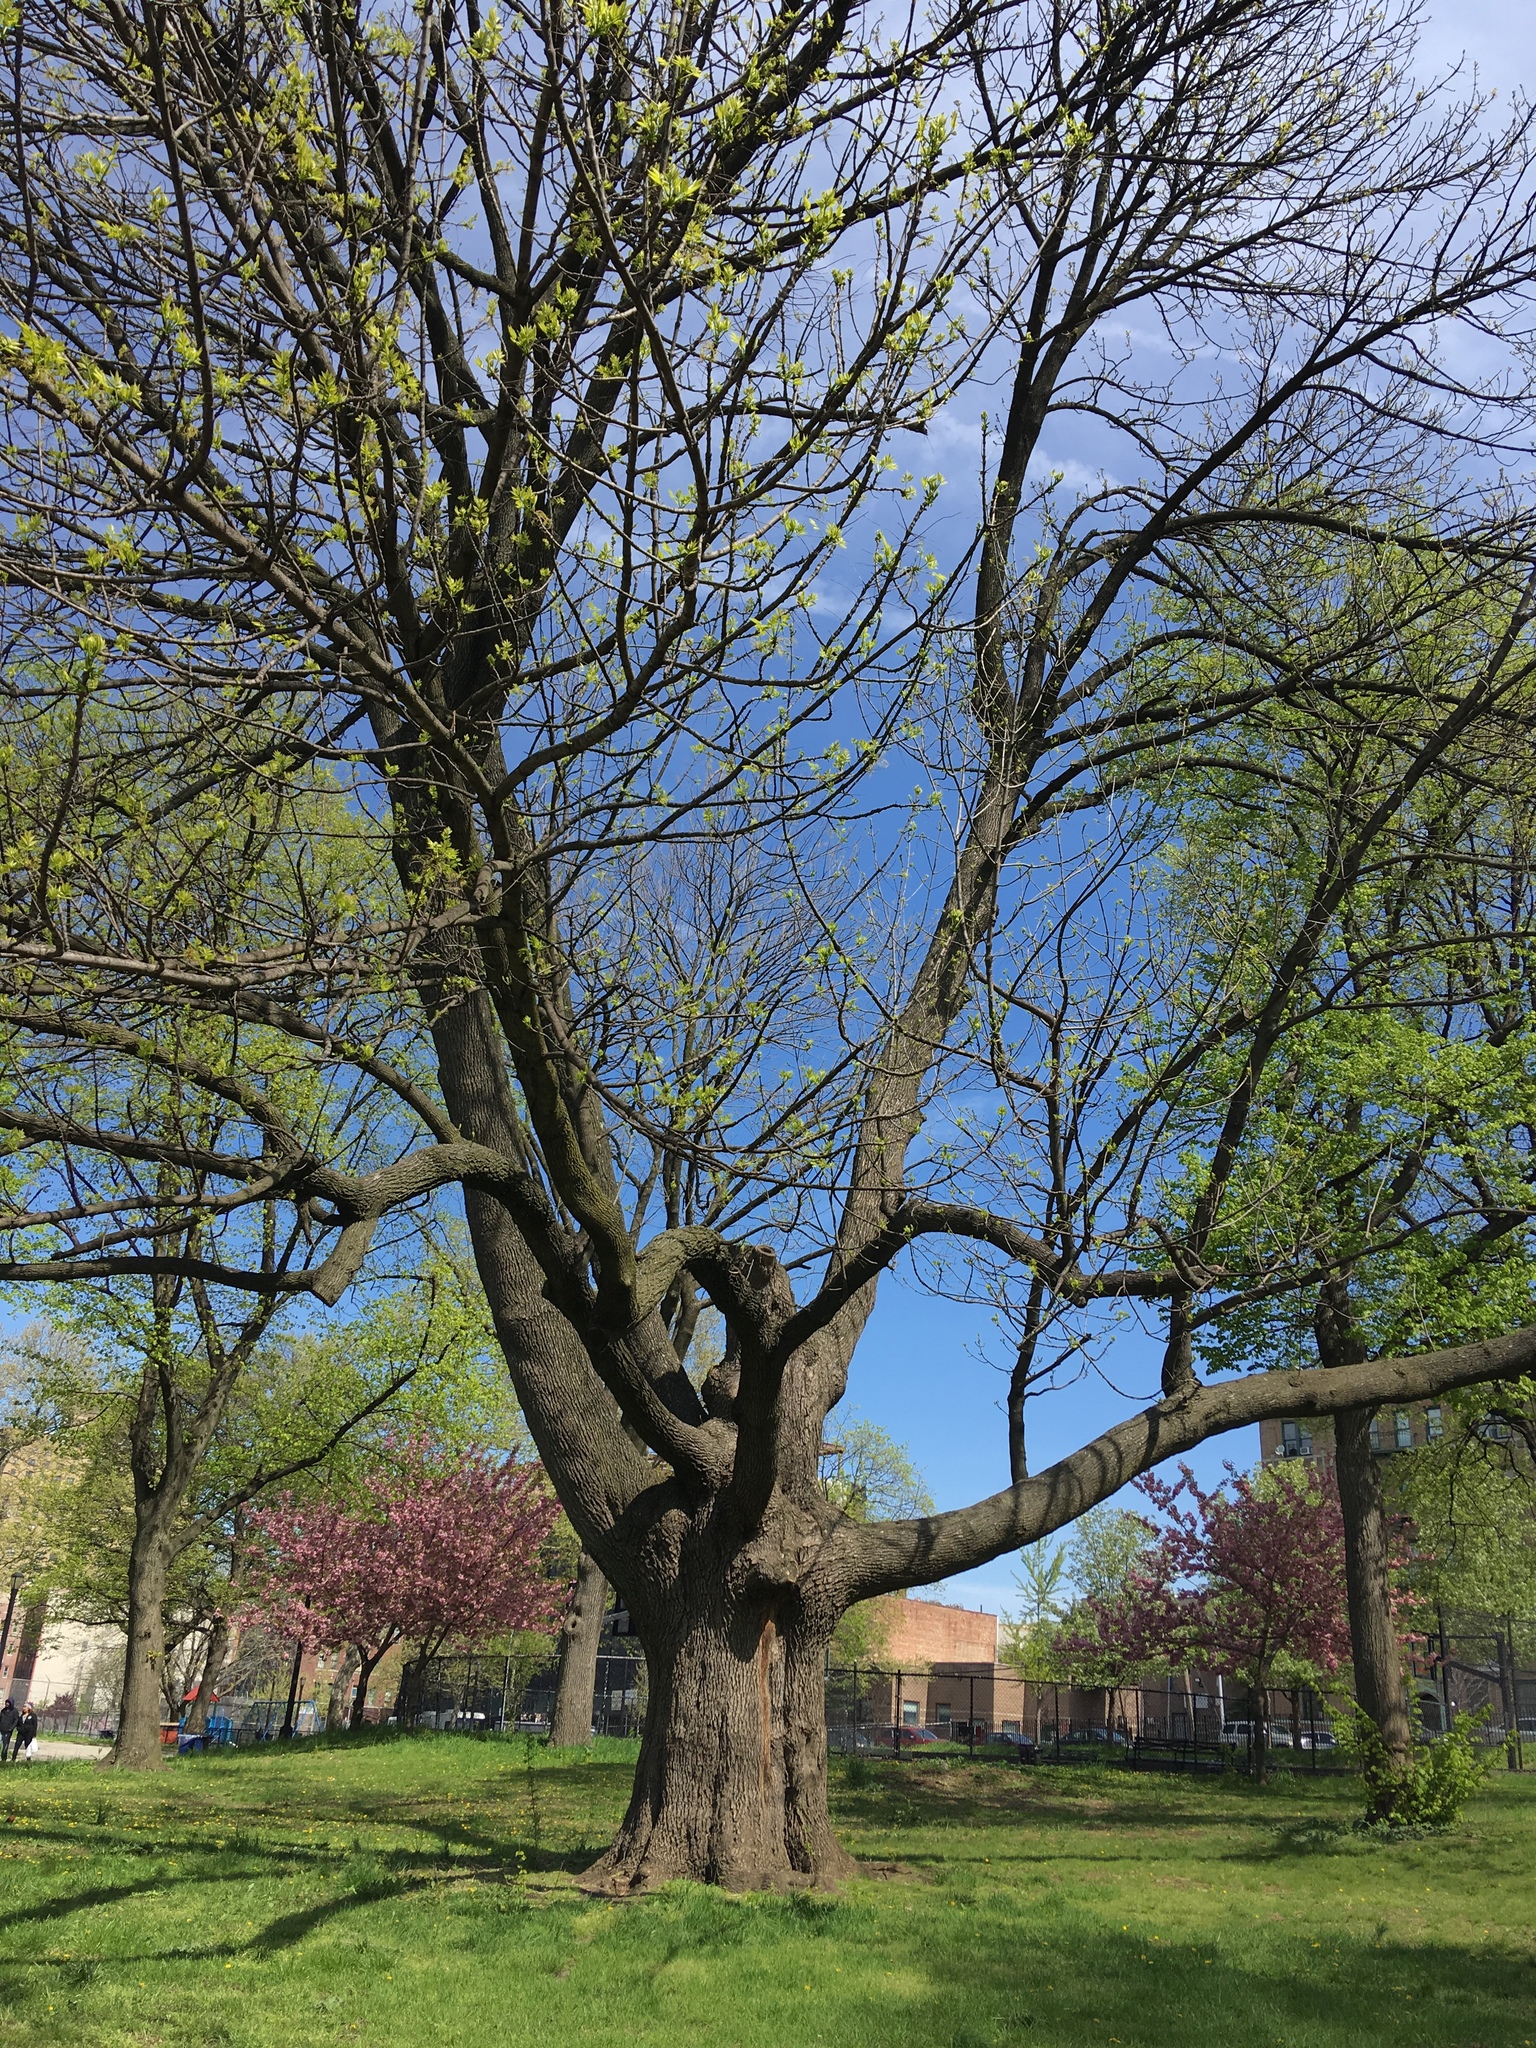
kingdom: Plantae
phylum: Tracheophyta
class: Magnoliopsida
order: Lamiales
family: Oleaceae
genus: Fraxinus
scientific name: Fraxinus americana
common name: White ash
